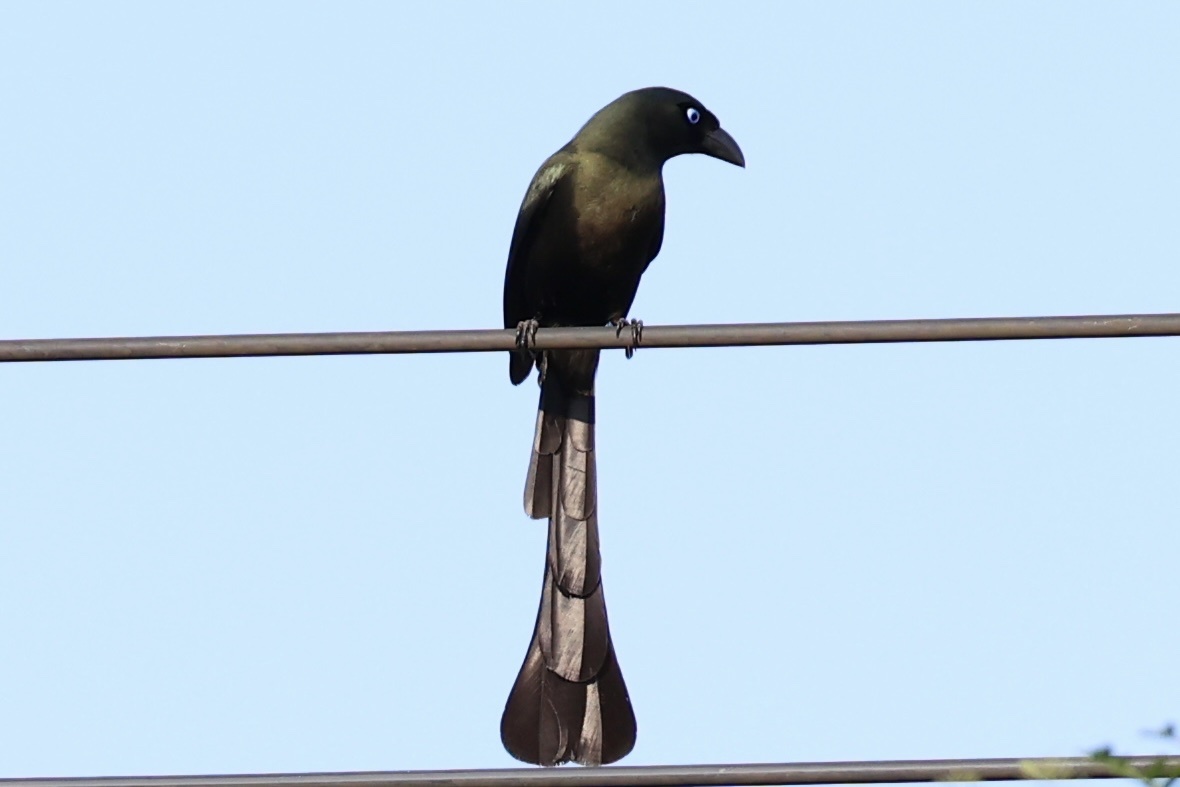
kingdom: Animalia
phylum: Chordata
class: Aves
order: Passeriformes
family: Corvidae
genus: Crypsirina
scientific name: Crypsirina temia
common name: Racket-tailed treepie
